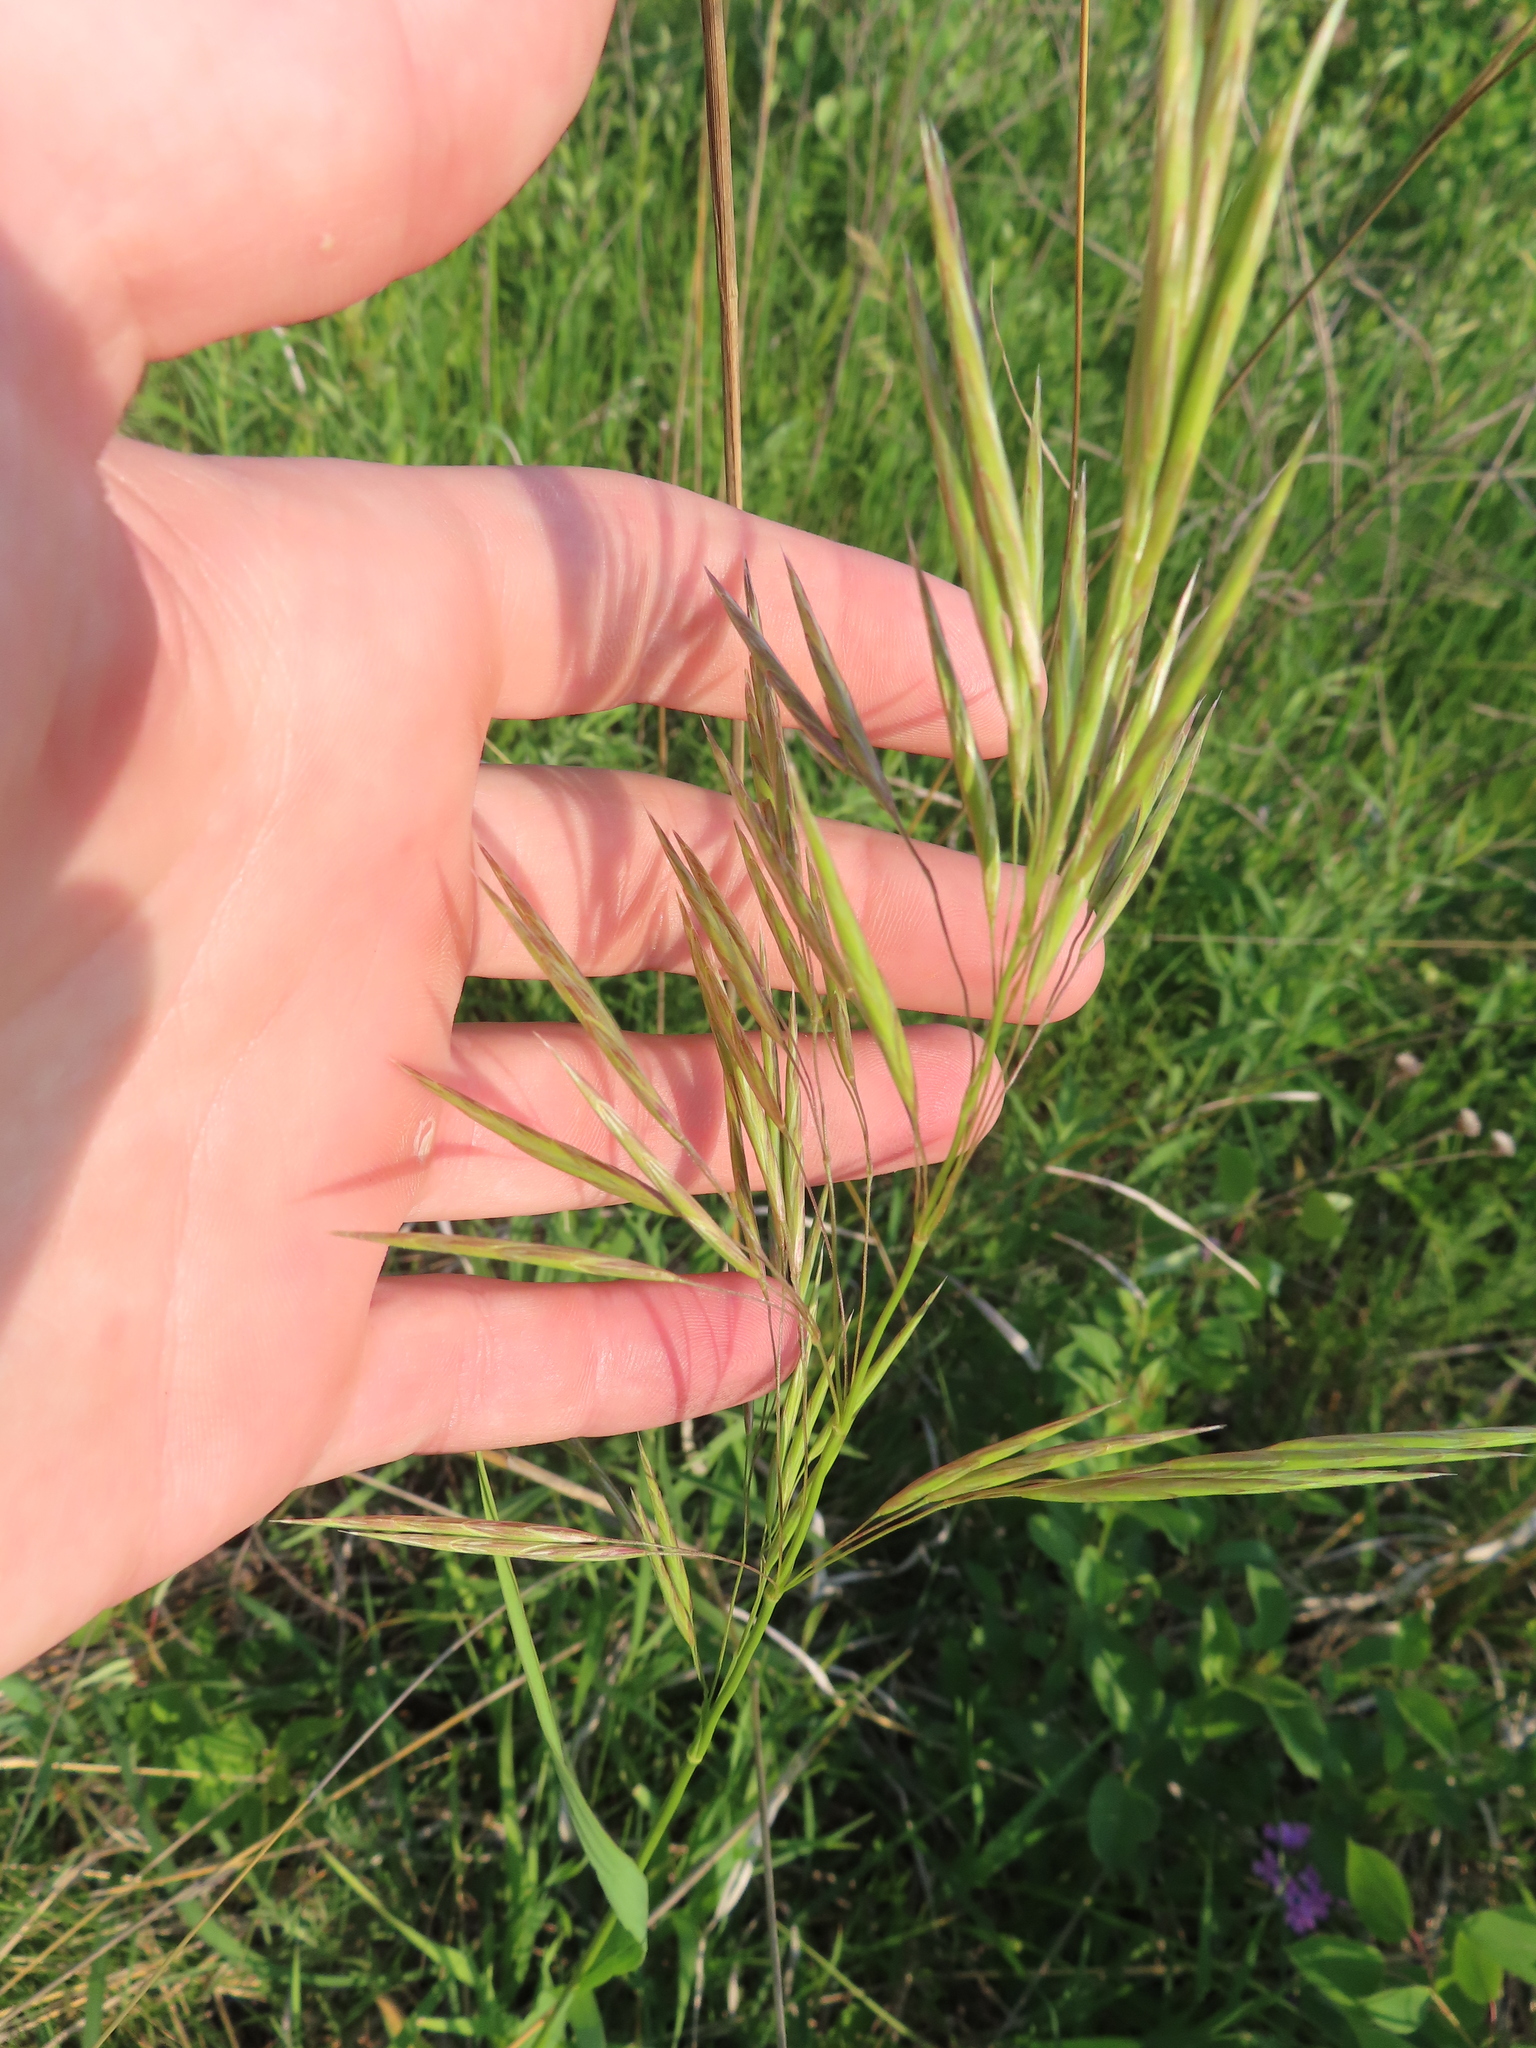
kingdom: Plantae
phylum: Tracheophyta
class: Liliopsida
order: Poales
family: Poaceae
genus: Bromus
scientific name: Bromus inermis
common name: Smooth brome
